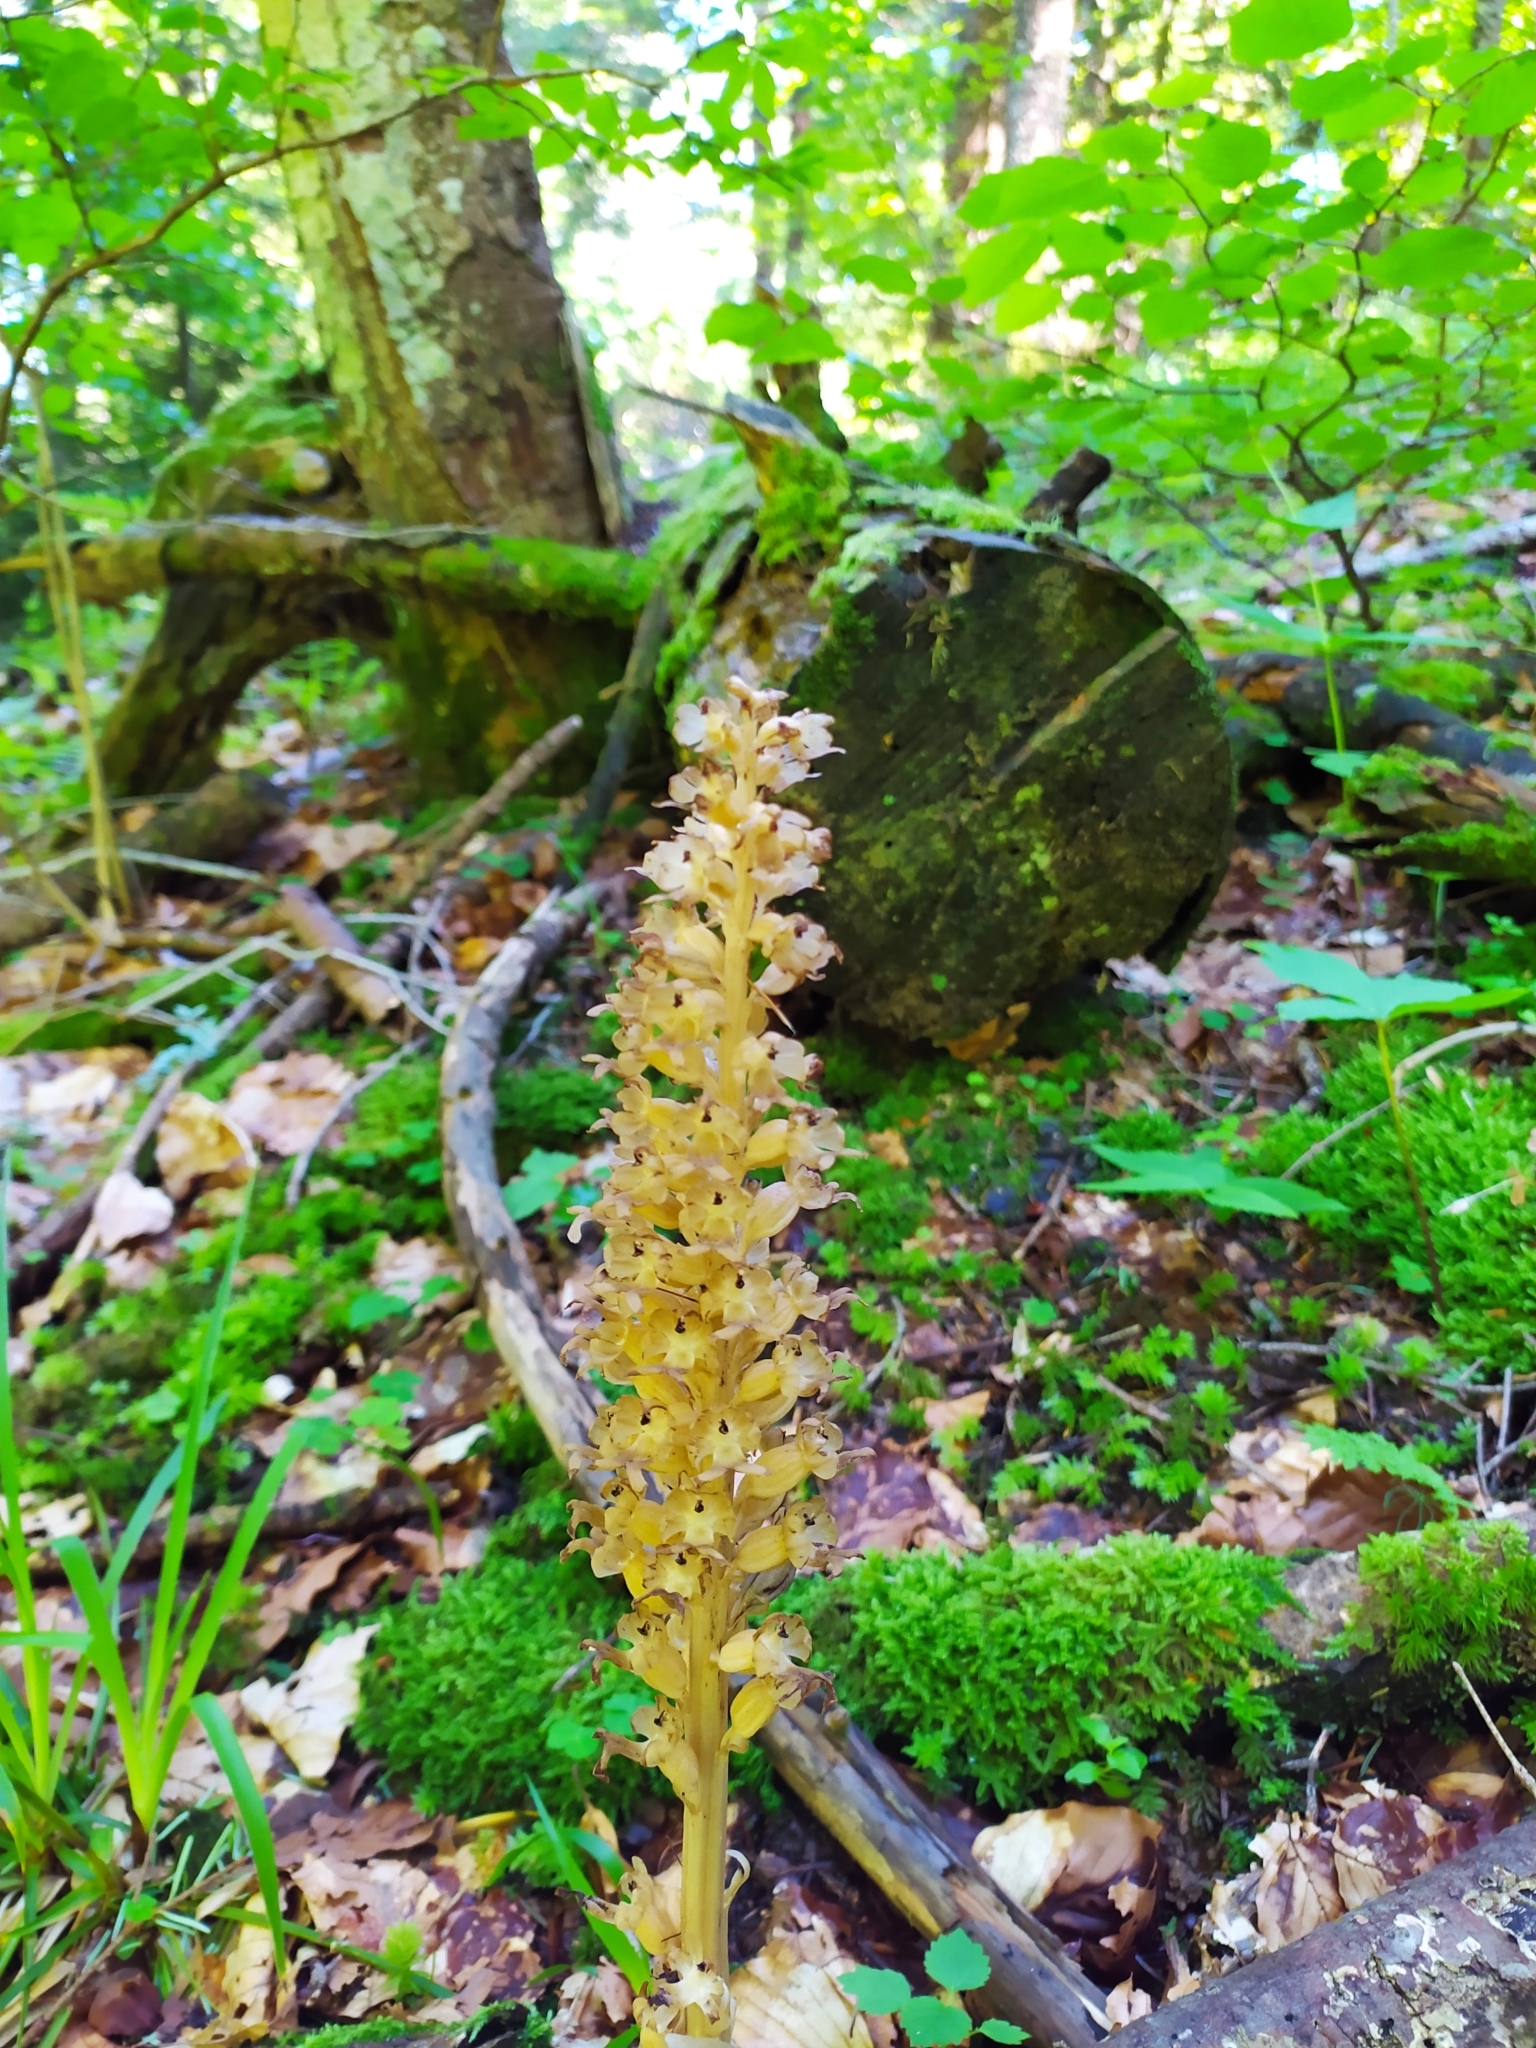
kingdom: Plantae
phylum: Tracheophyta
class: Liliopsida
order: Asparagales
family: Orchidaceae
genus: Neottia
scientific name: Neottia nidus-avis
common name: Bird's-nest orchid
